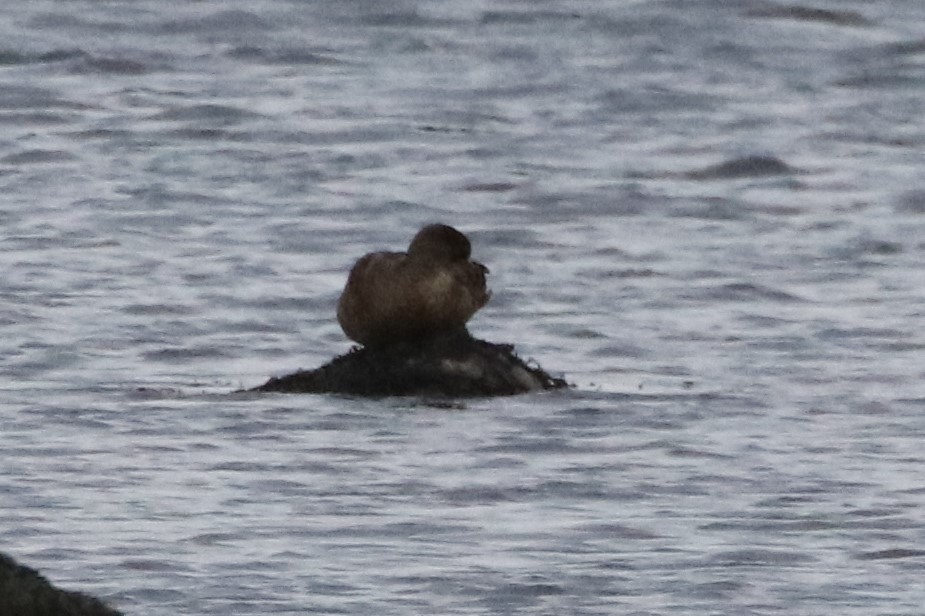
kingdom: Animalia
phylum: Chordata
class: Aves
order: Anseriformes
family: Anatidae
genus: Somateria
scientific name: Somateria mollissima
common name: Common eider
